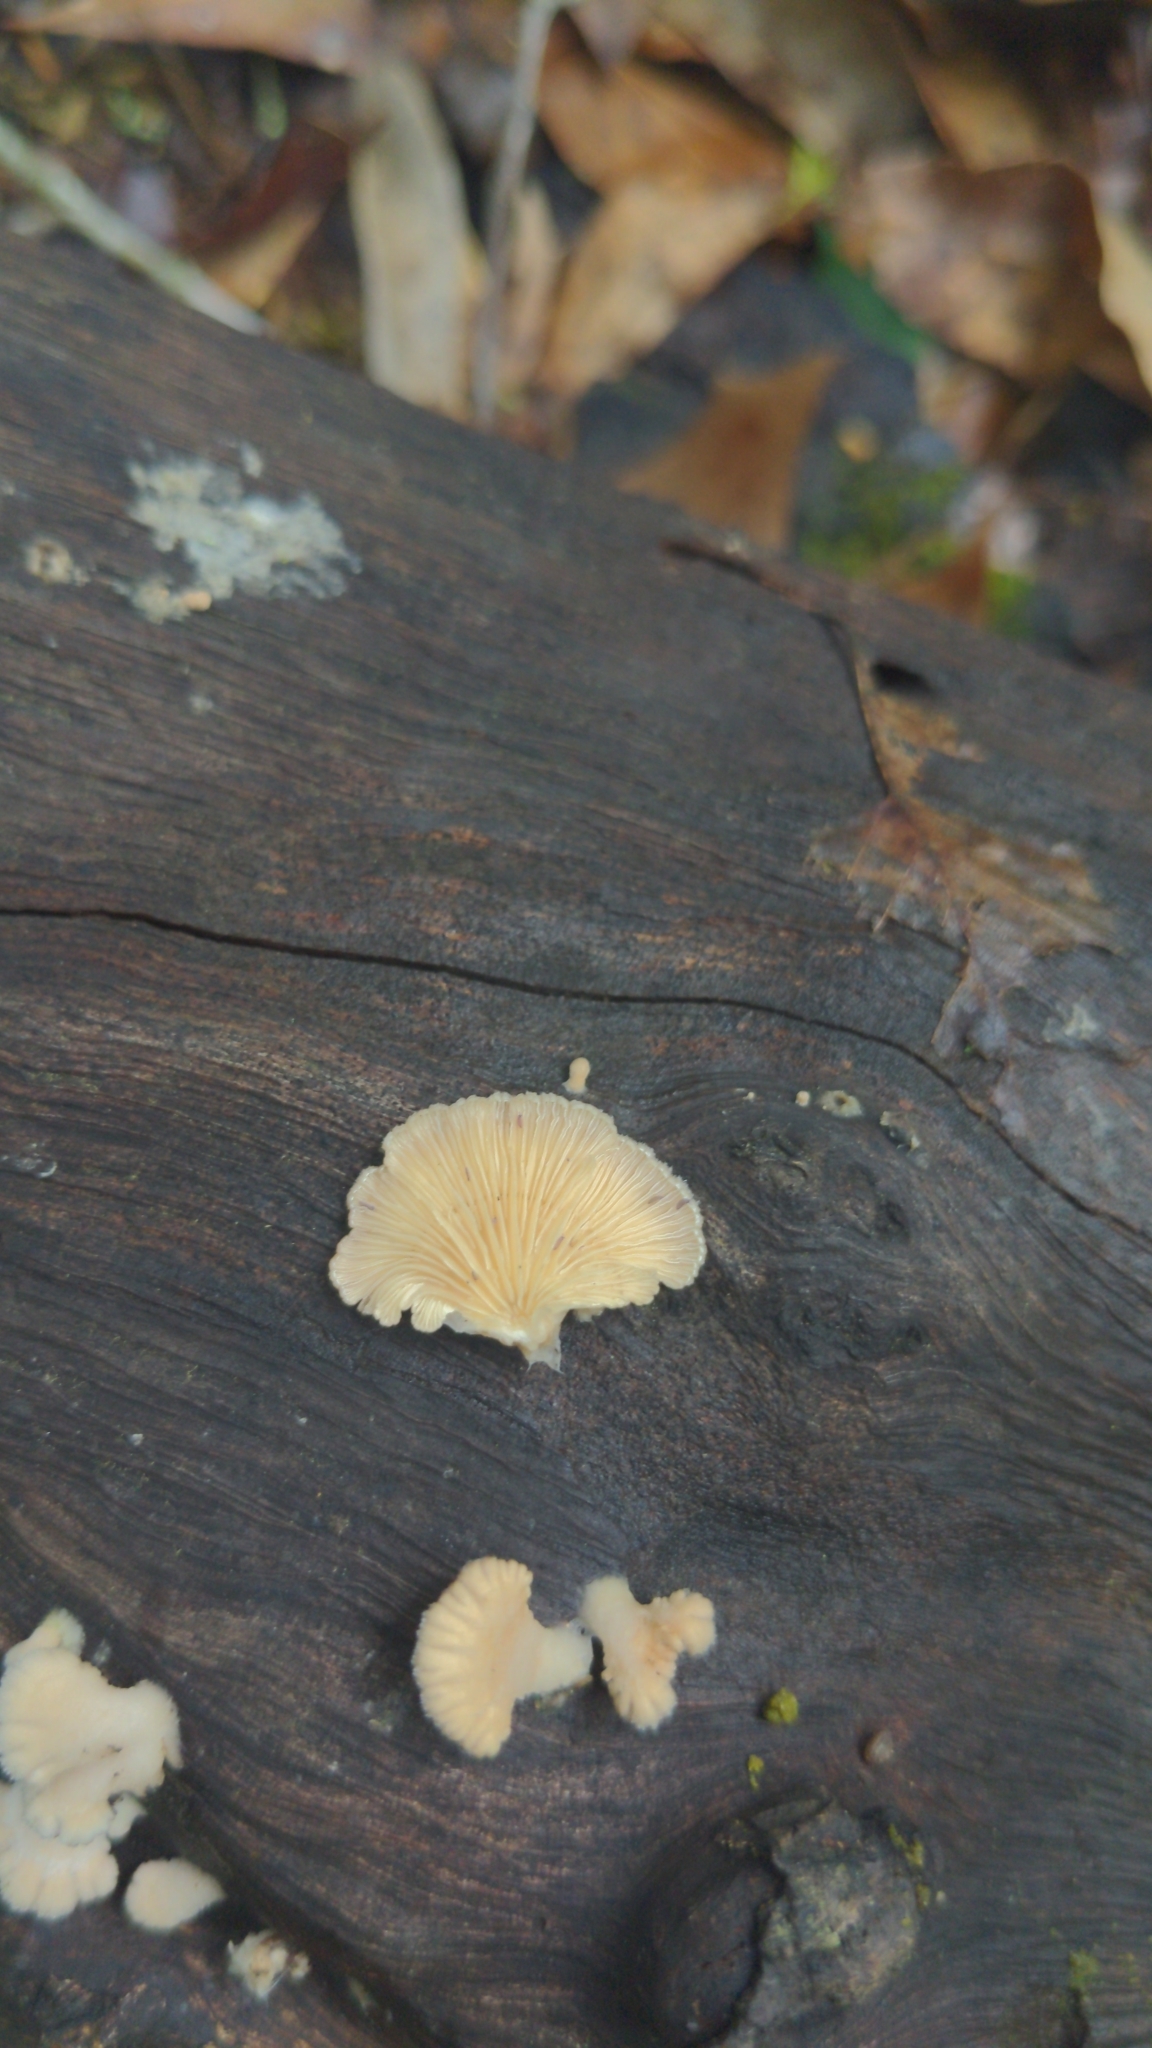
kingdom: Fungi
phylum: Basidiomycota
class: Agaricomycetes
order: Agaricales
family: Schizophyllaceae
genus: Schizophyllum
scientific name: Schizophyllum commune
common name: Common porecrust
